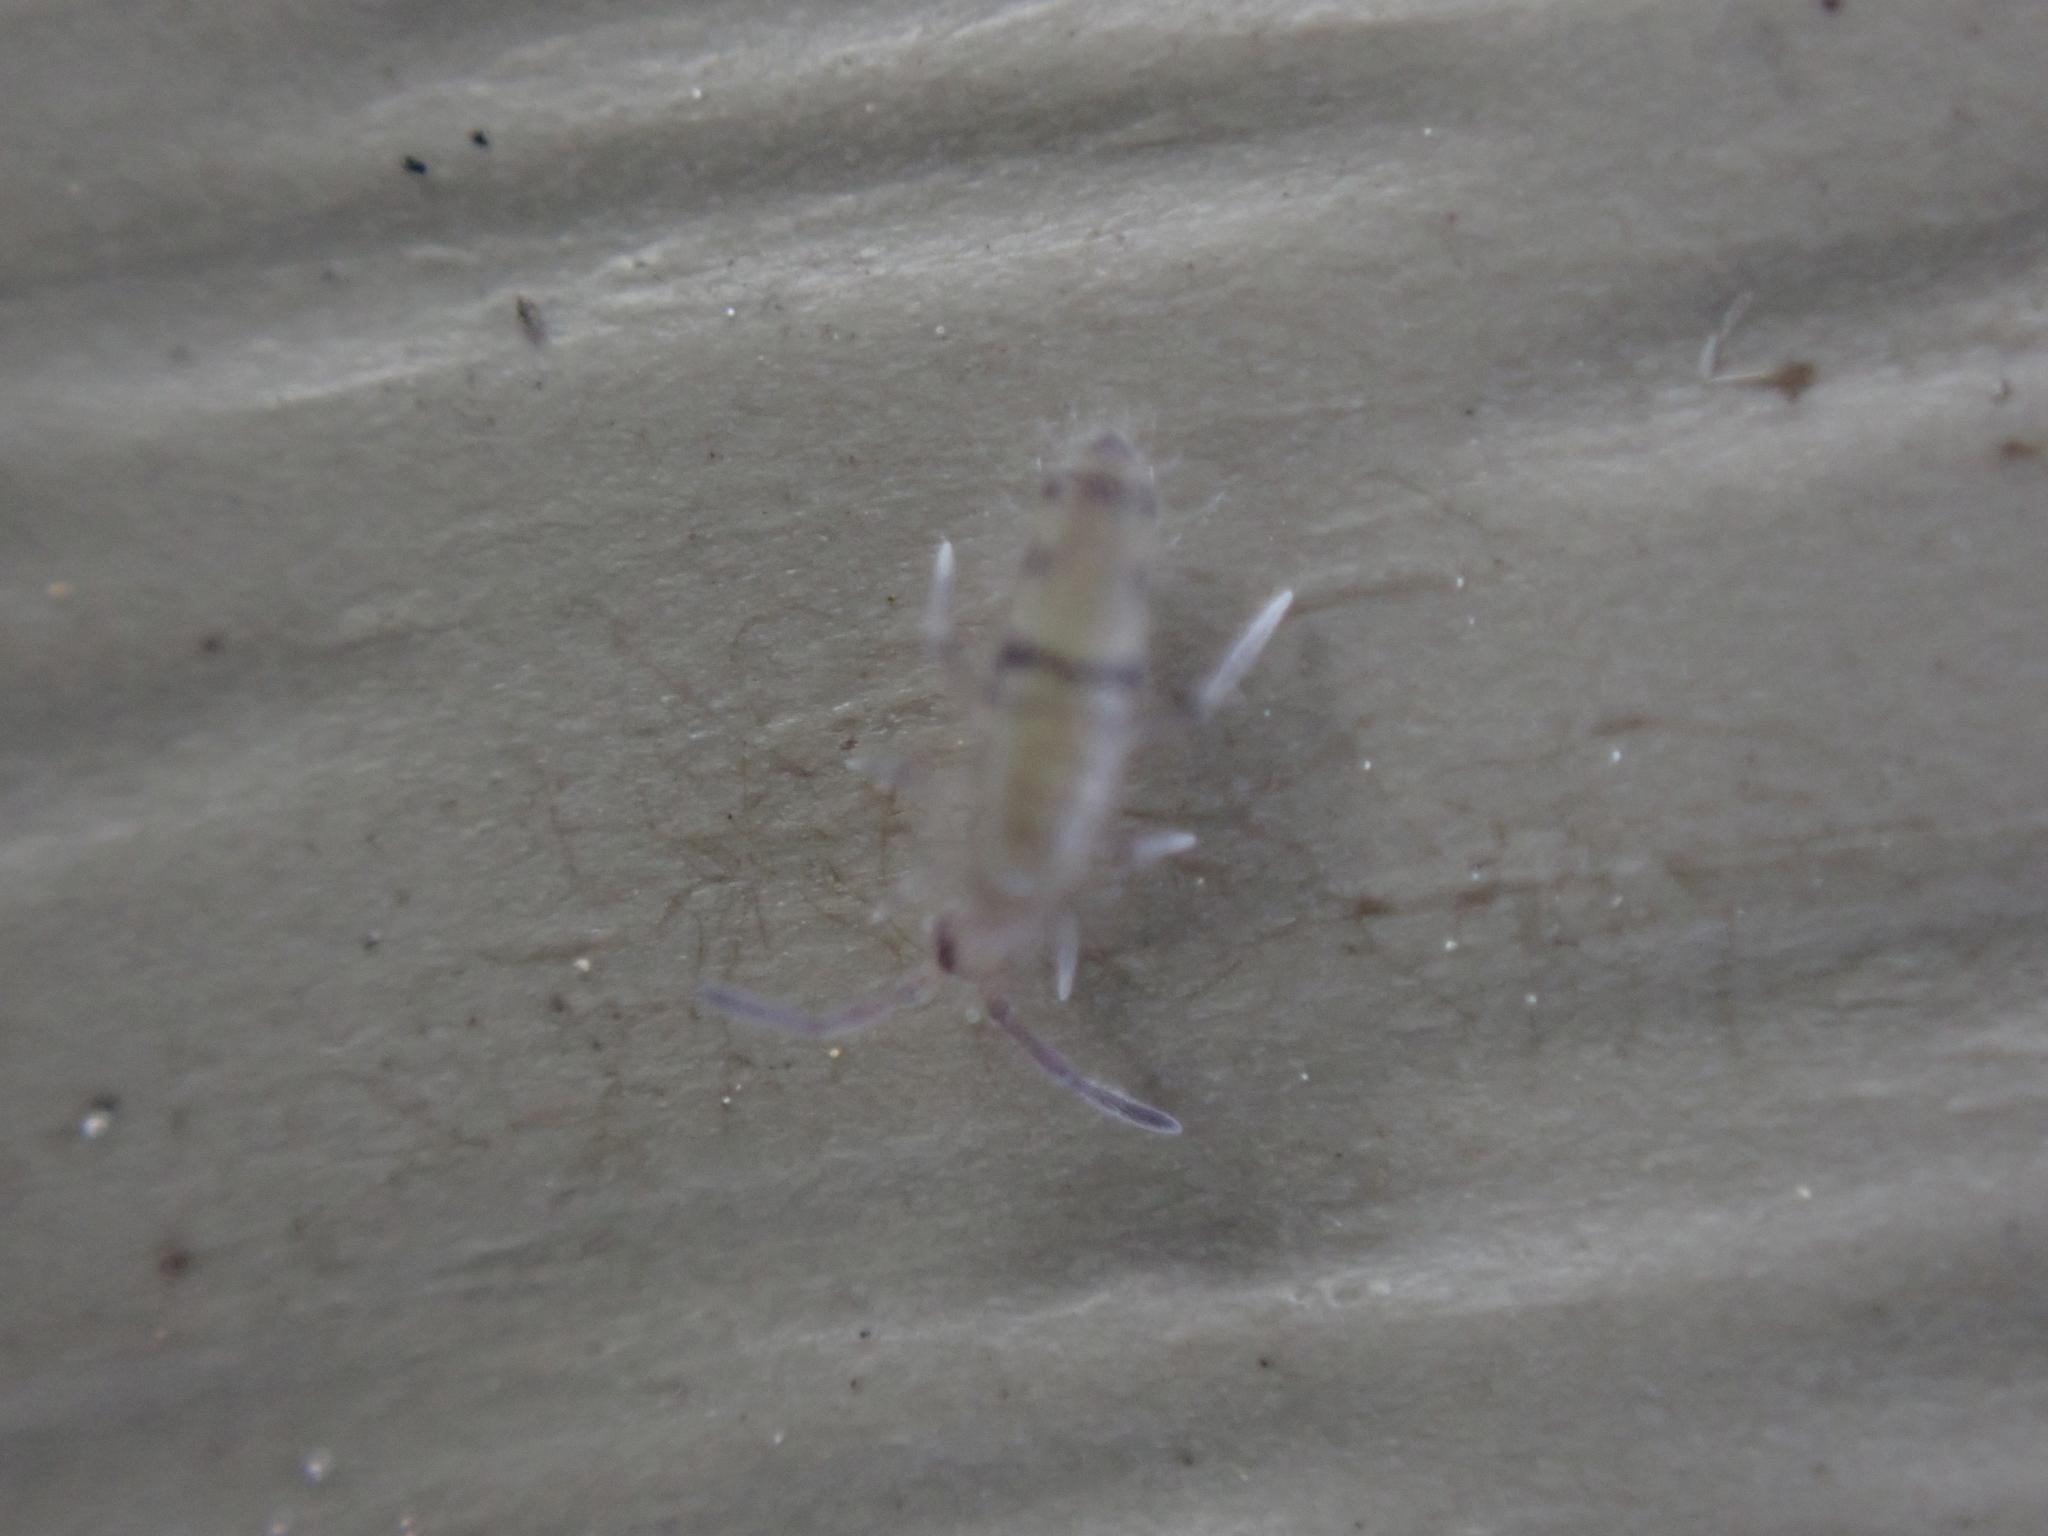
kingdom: Animalia
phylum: Arthropoda
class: Collembola
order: Entomobryomorpha
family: Entomobryidae
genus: Willowsia
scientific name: Willowsia nigromaculata
